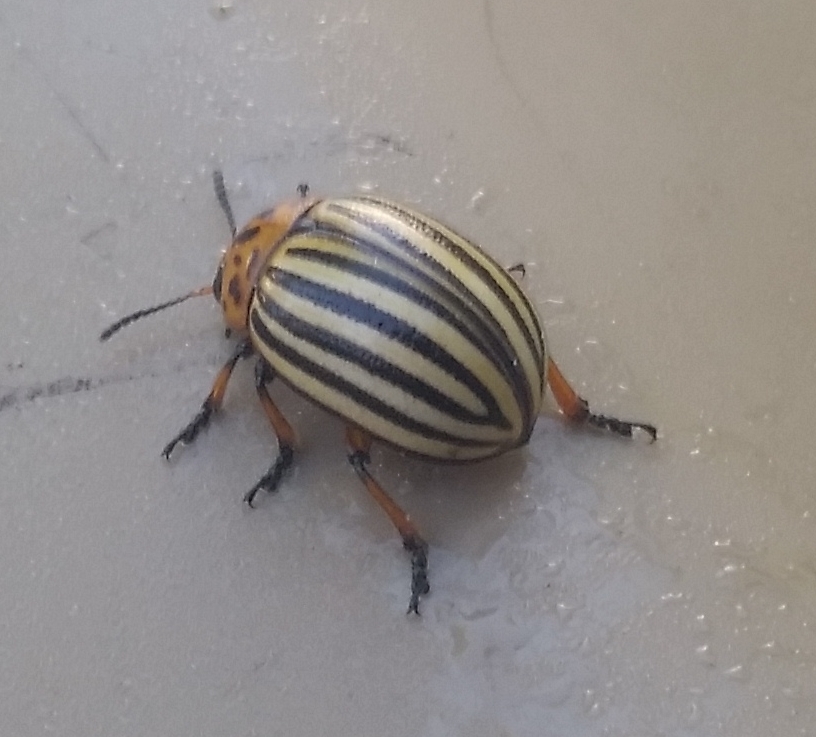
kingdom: Animalia
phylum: Arthropoda
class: Insecta
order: Coleoptera
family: Chrysomelidae
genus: Leptinotarsa
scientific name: Leptinotarsa decemlineata
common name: Colorado potato beetle
